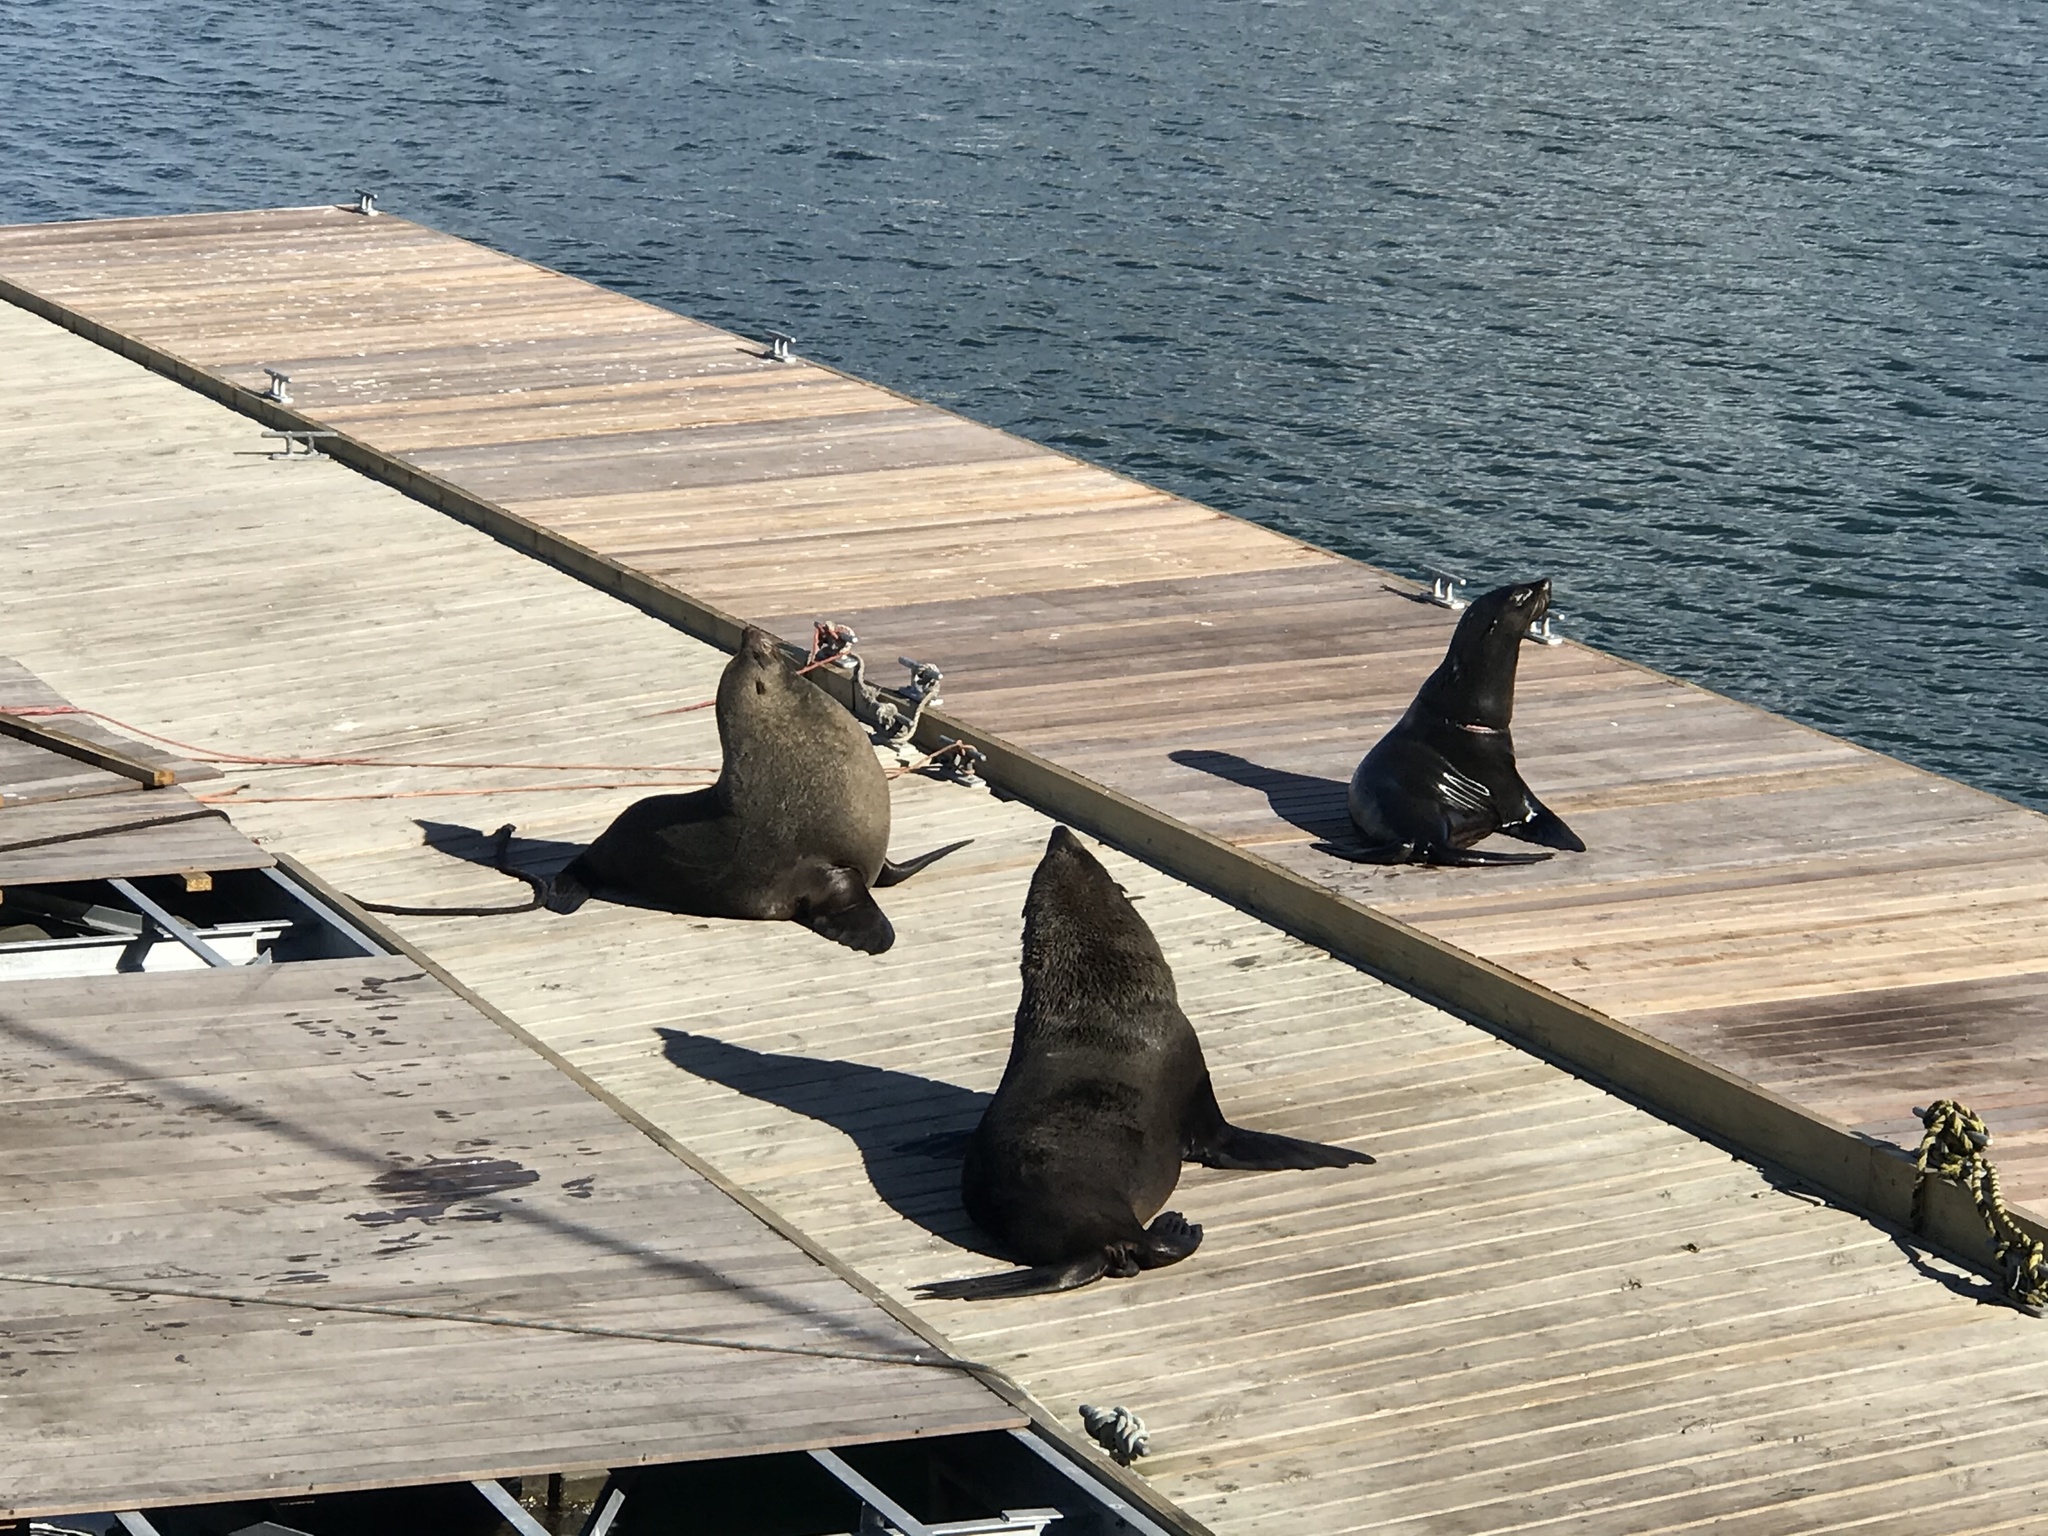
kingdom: Animalia
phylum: Chordata
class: Mammalia
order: Carnivora
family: Otariidae
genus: Arctocephalus
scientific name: Arctocephalus pusillus
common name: Brown fur seal
